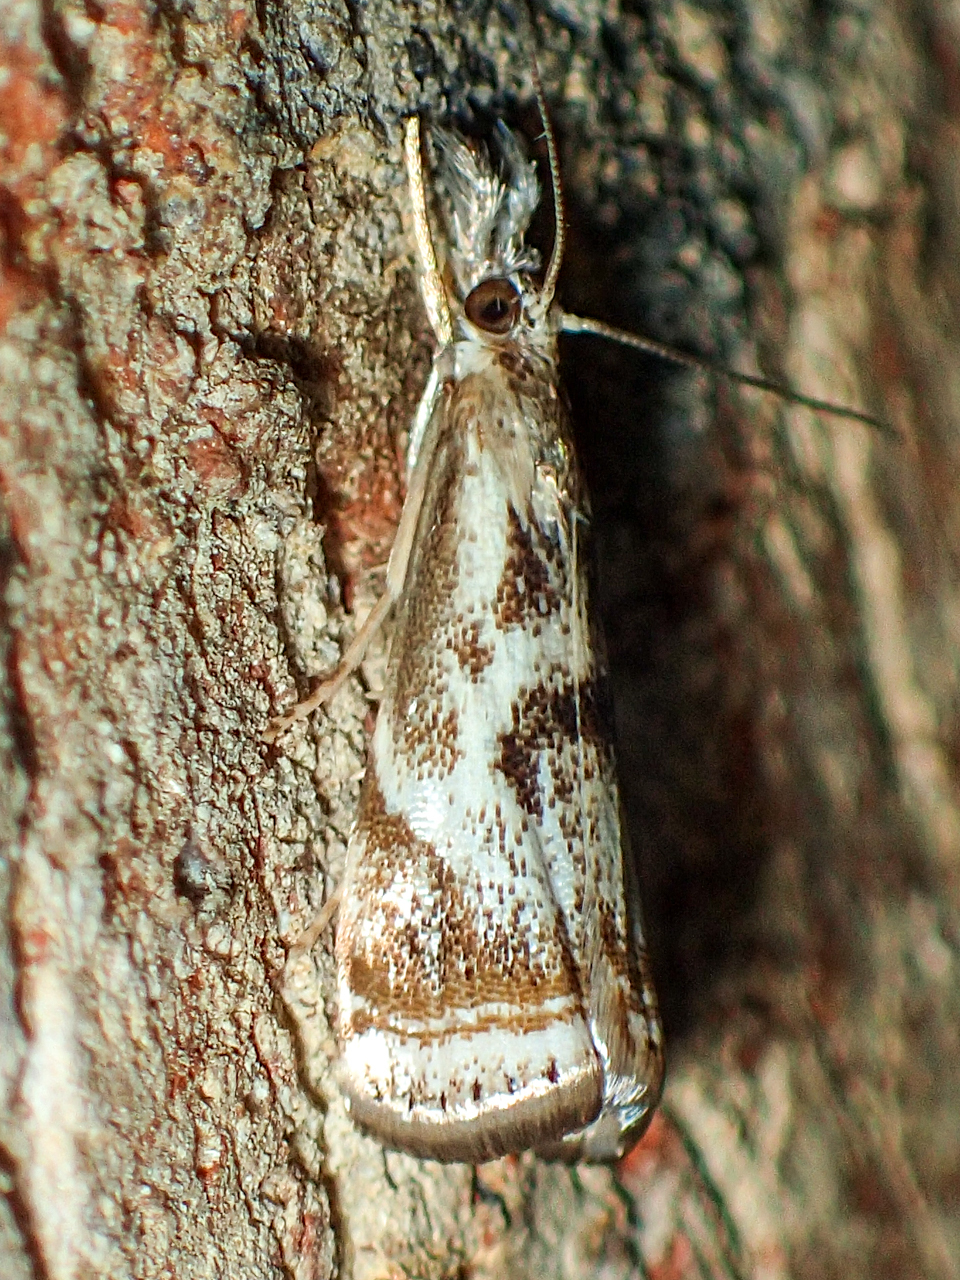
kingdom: Animalia
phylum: Arthropoda
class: Insecta
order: Lepidoptera
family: Crambidae
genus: Microcrambus
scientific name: Microcrambus elegans
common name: Elegant grass-veneer
